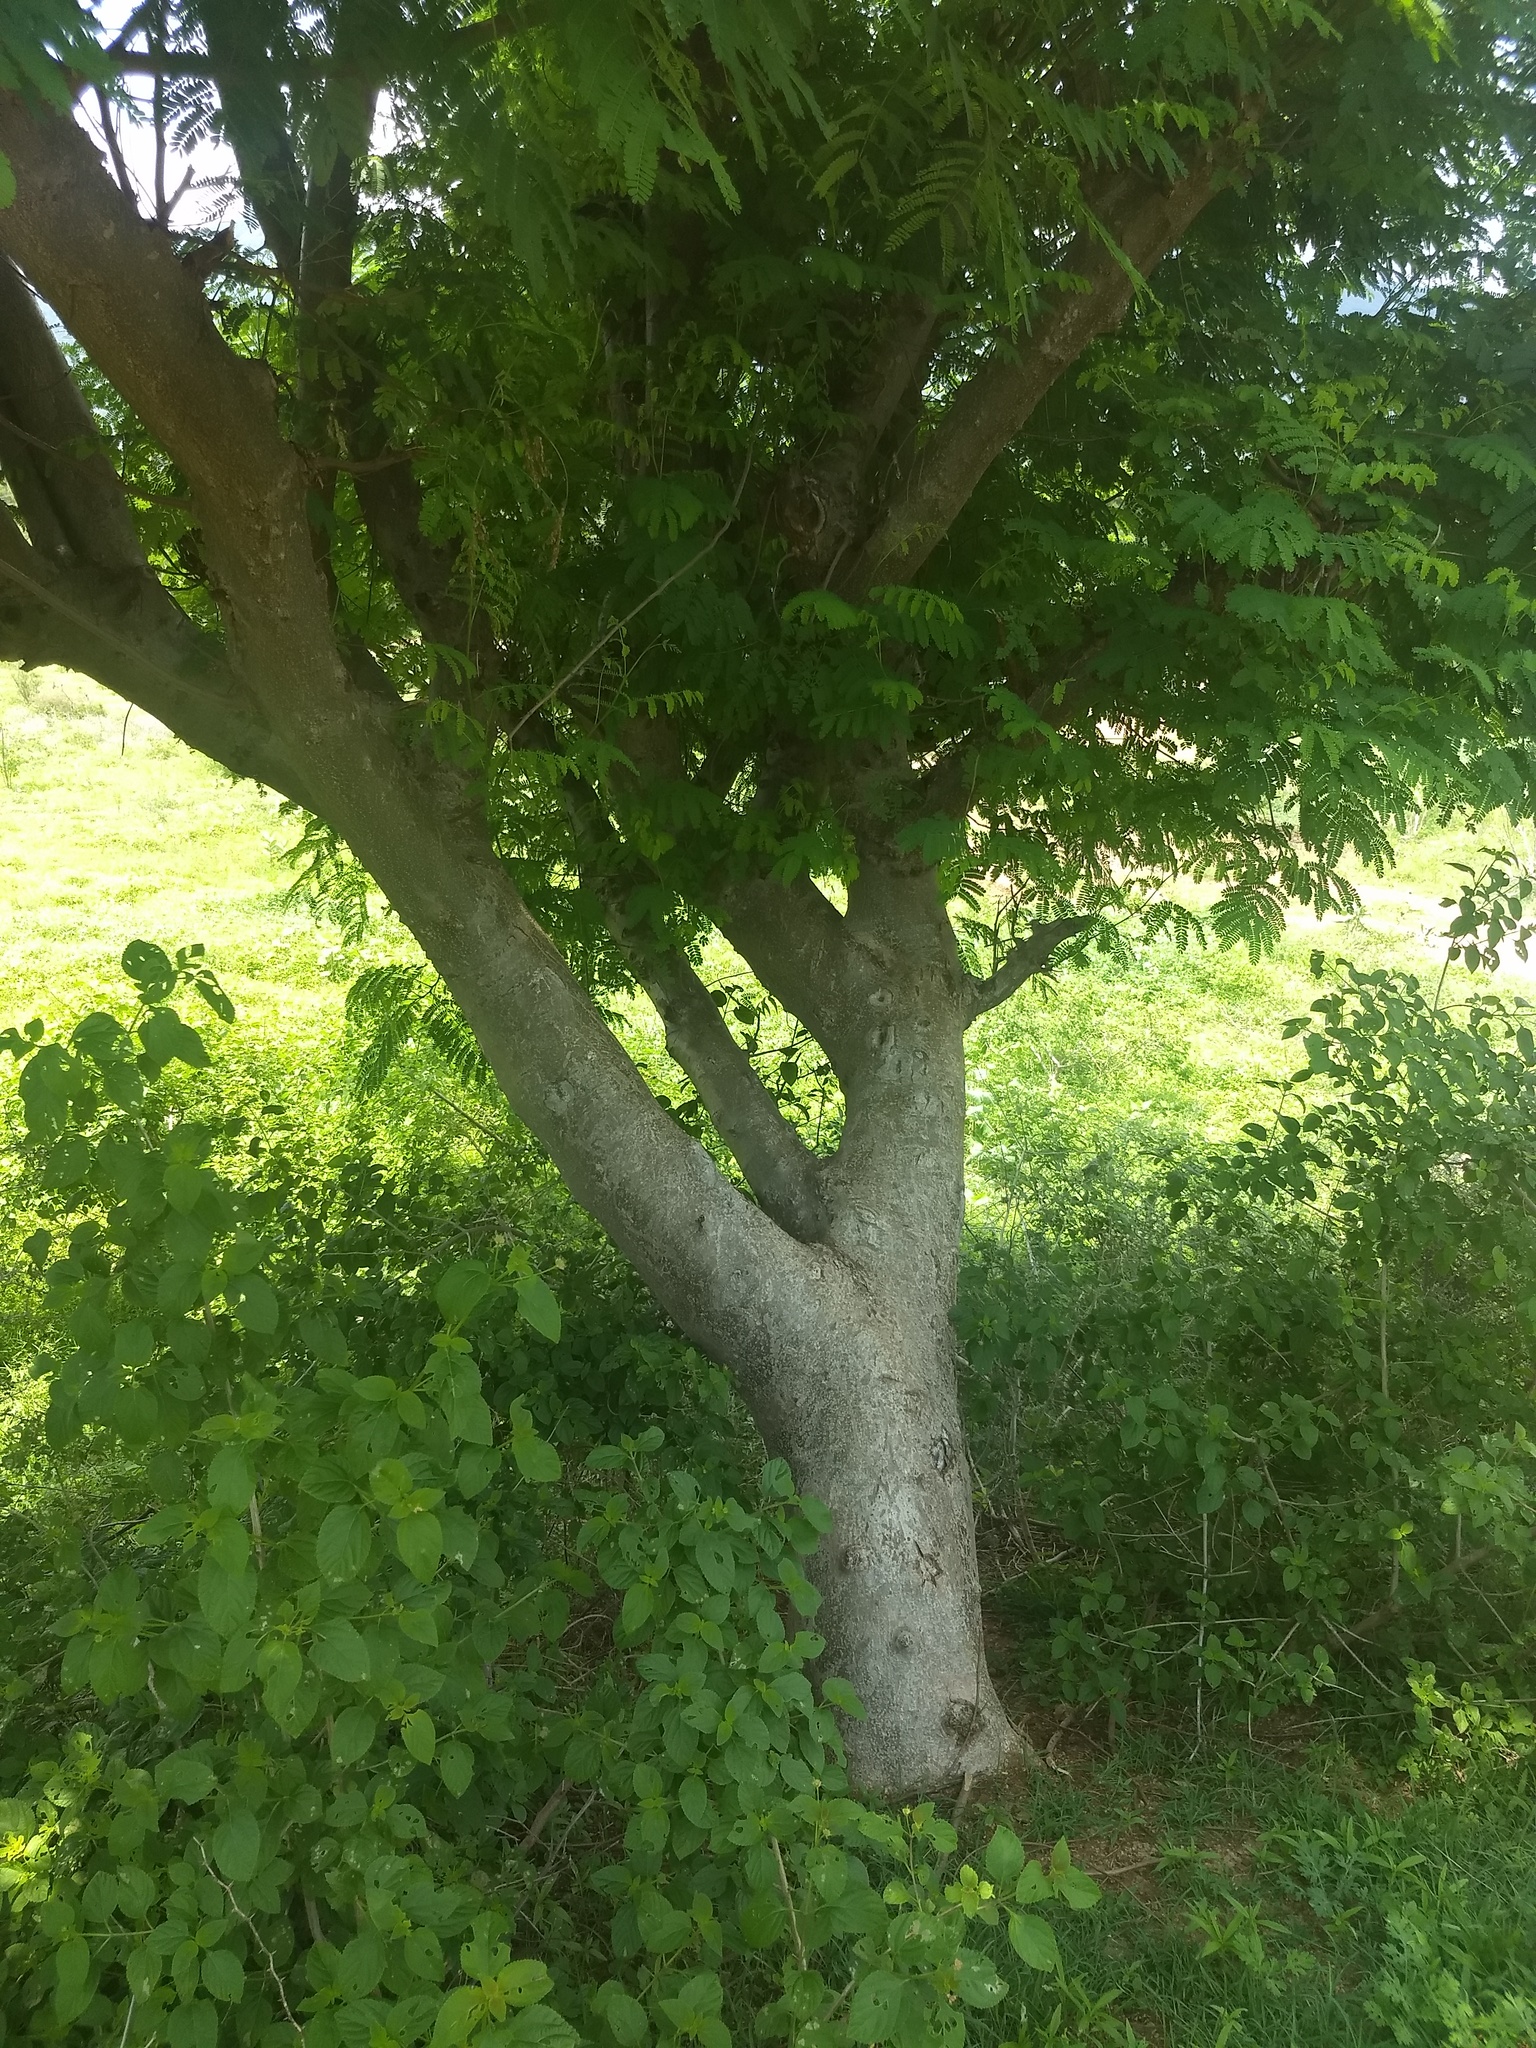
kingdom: Plantae
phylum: Tracheophyta
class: Magnoliopsida
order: Fabales
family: Fabaceae
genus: Albizia
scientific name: Albizia lebbeck
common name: Woman's tongue
